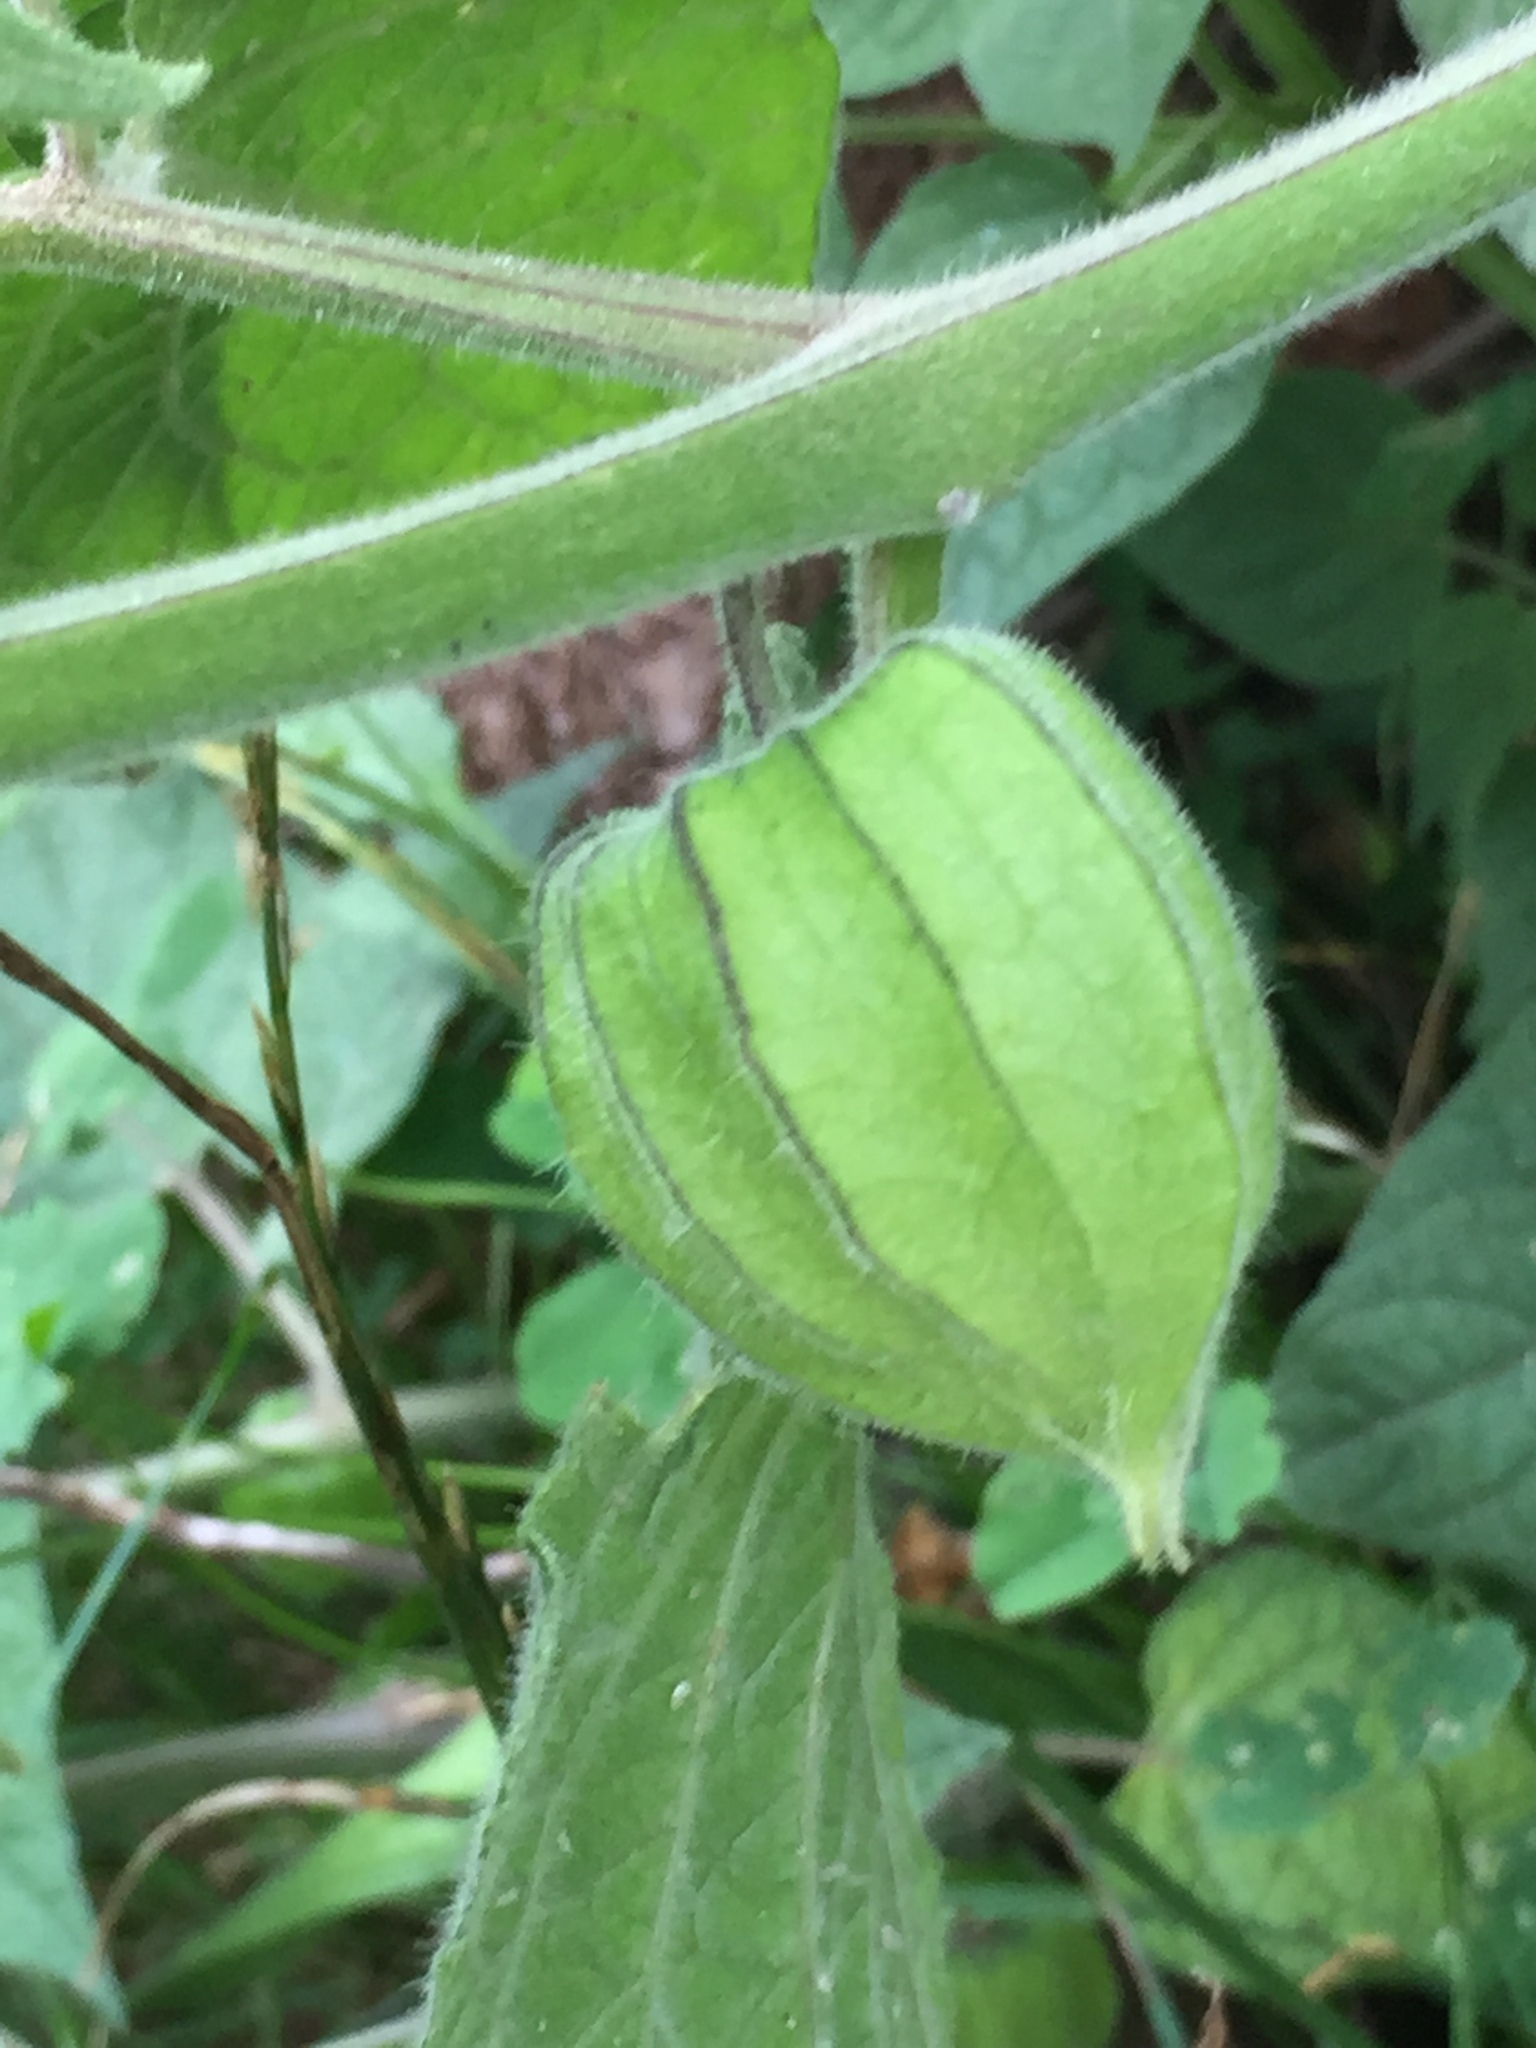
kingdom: Plantae
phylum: Tracheophyta
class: Magnoliopsida
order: Solanales
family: Solanaceae
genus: Physalis
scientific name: Physalis peruviana
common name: Cape-gooseberry
